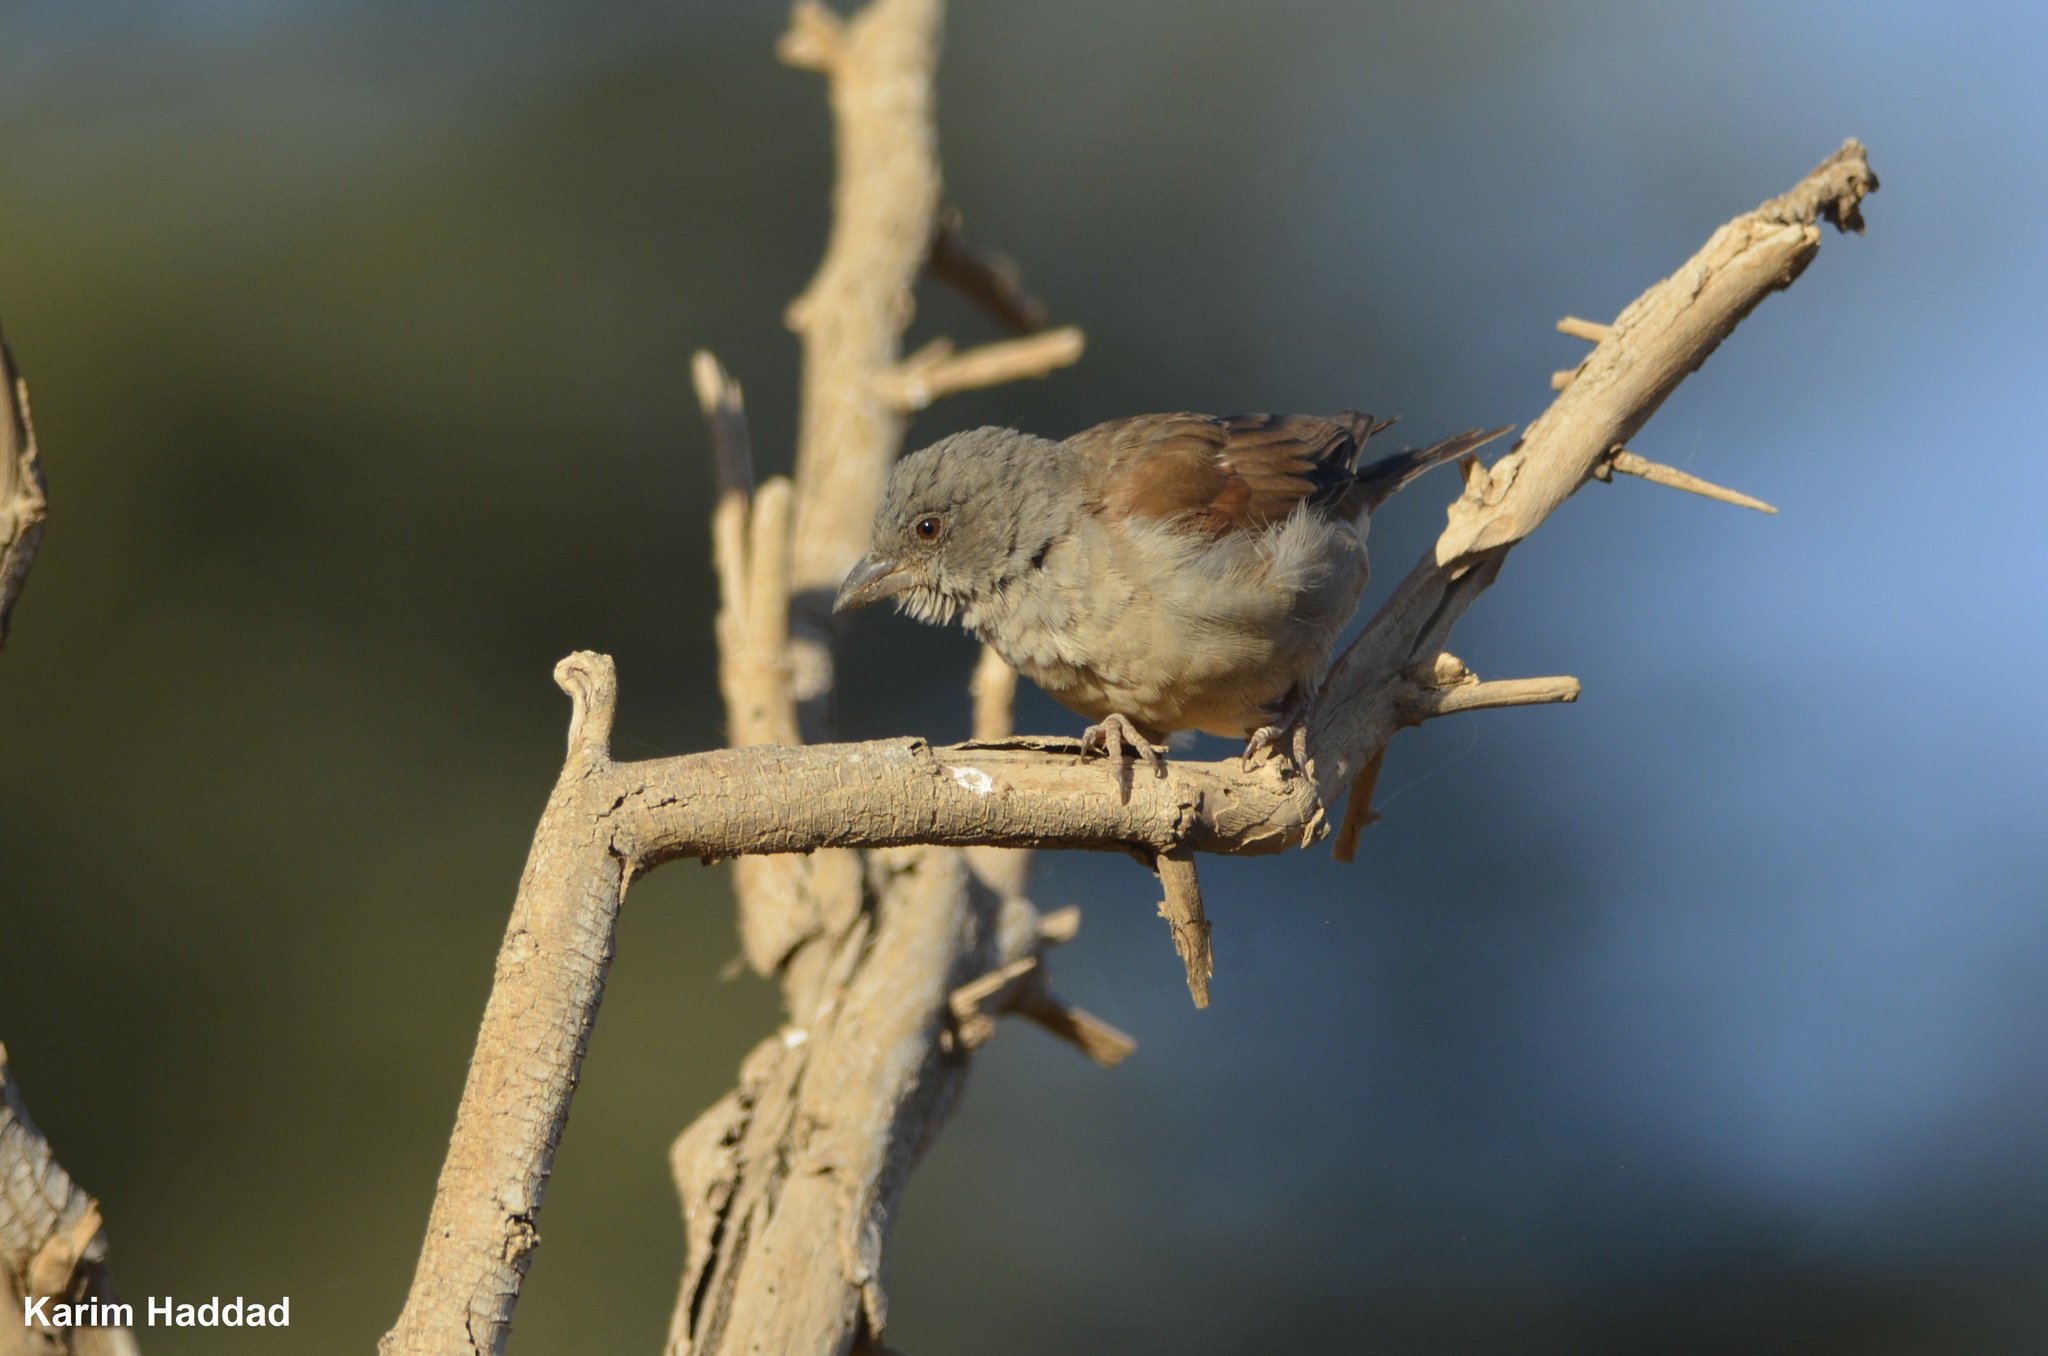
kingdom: Animalia
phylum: Chordata
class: Aves
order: Passeriformes
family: Passeridae
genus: Passer
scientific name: Passer griseus
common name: Northern grey-headed sparrow
